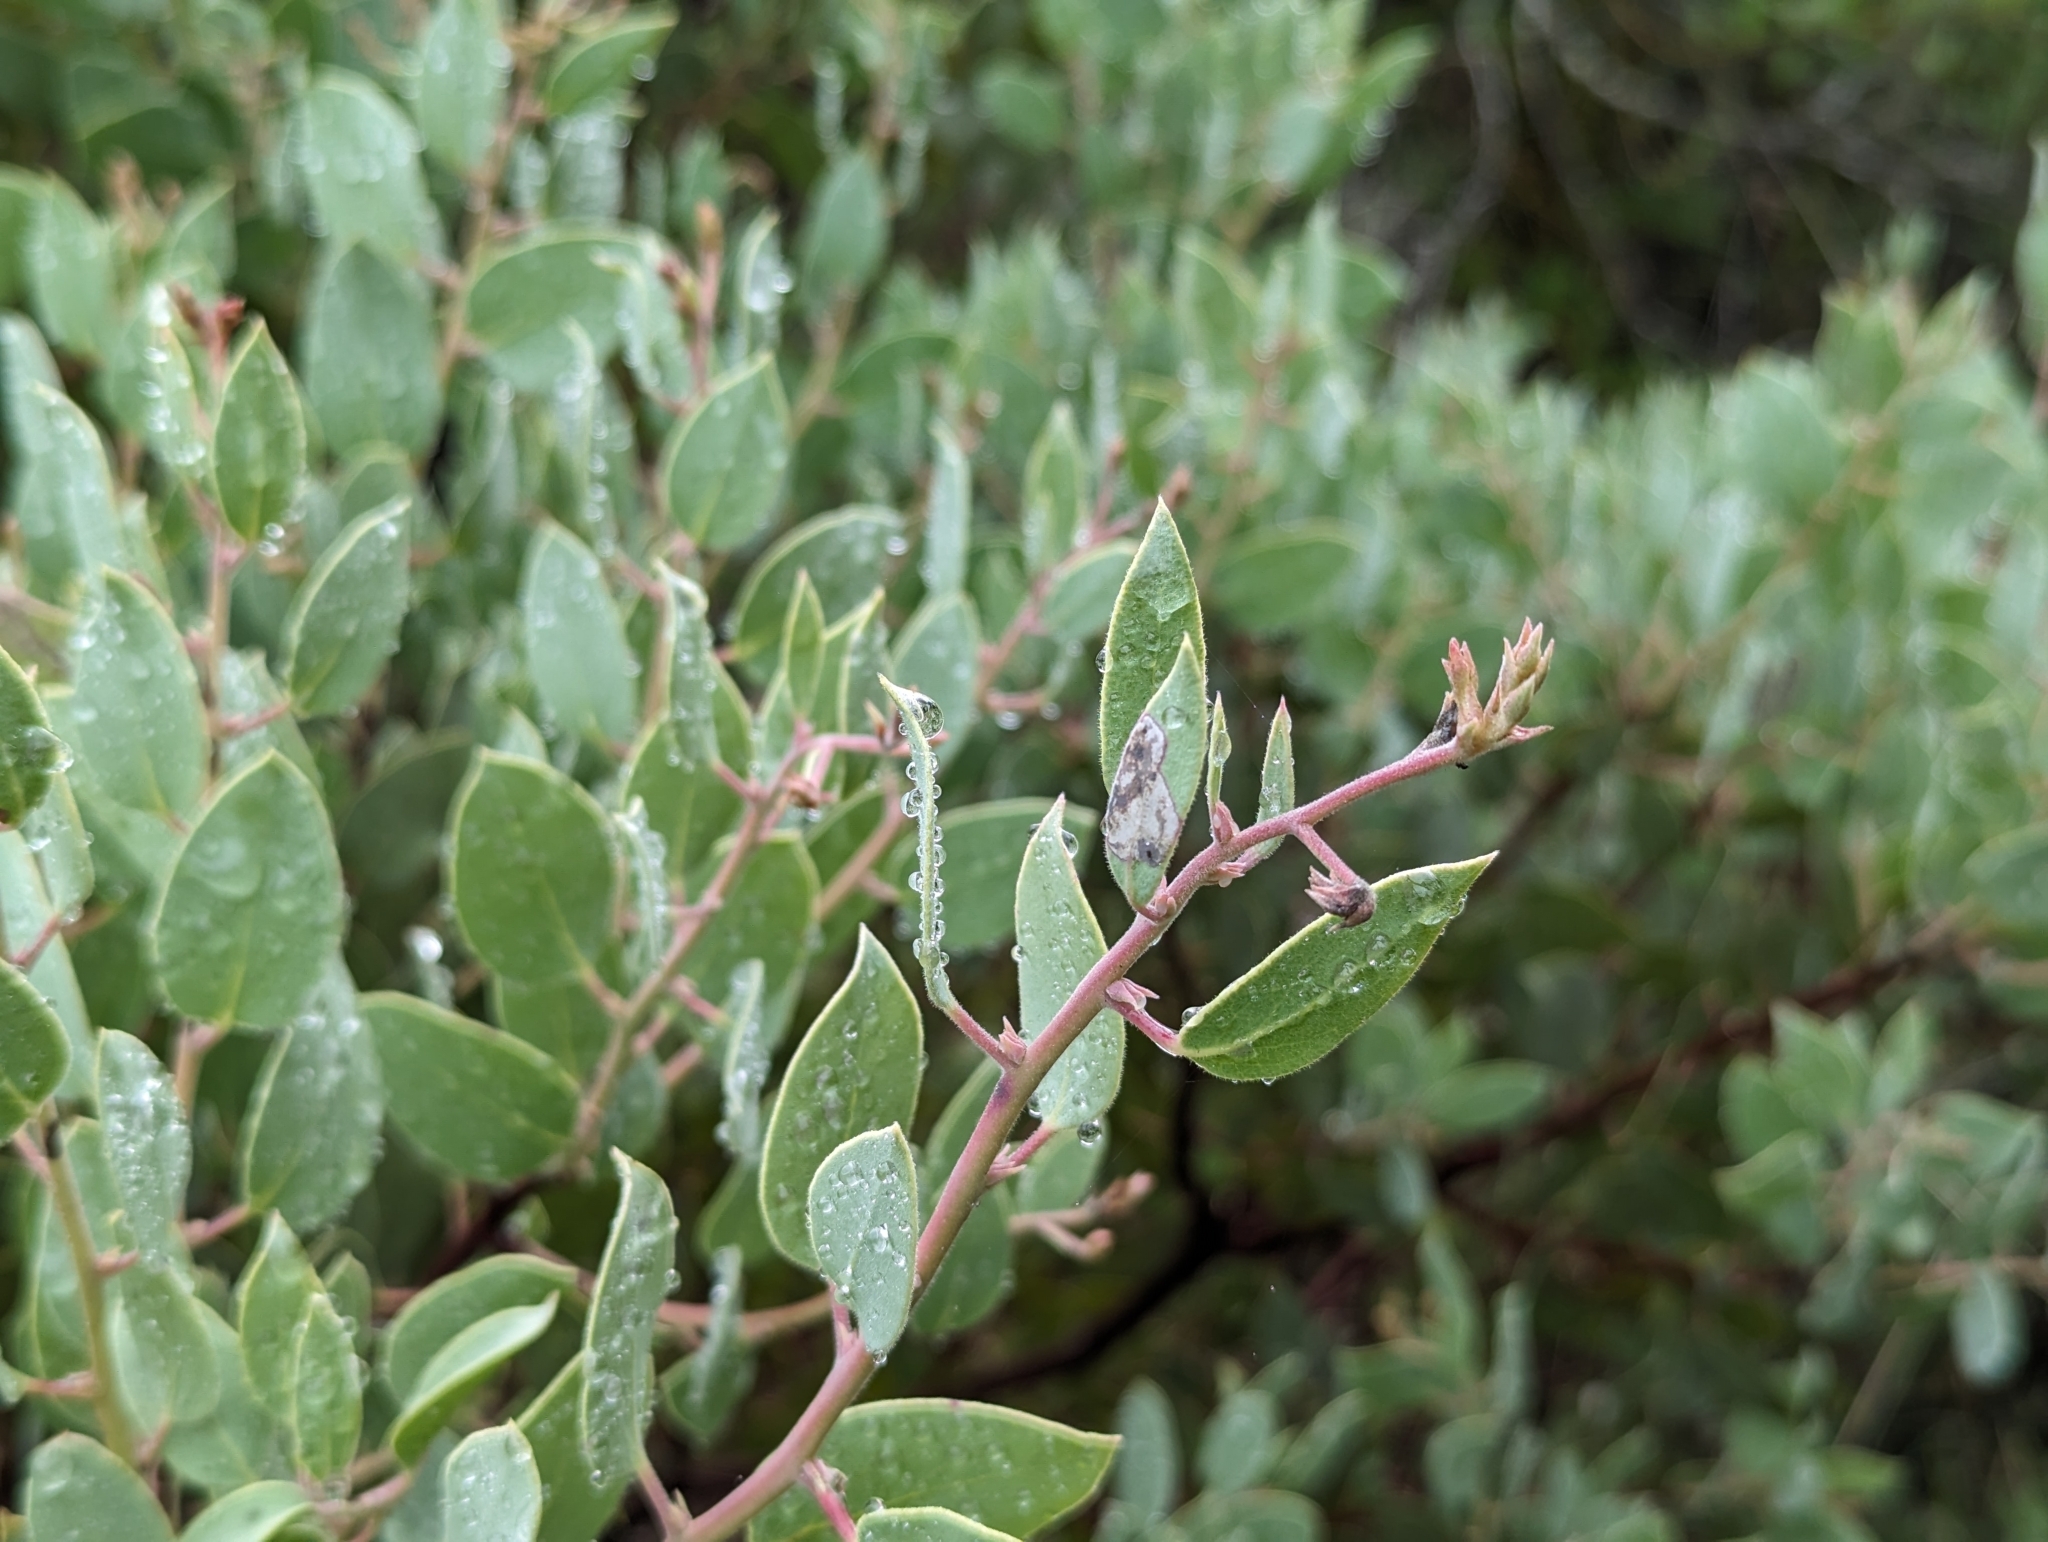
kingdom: Plantae
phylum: Tracheophyta
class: Magnoliopsida
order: Ericales
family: Ericaceae
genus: Arctostaphylos
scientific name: Arctostaphylos viscida
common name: White-leaf manzanita
